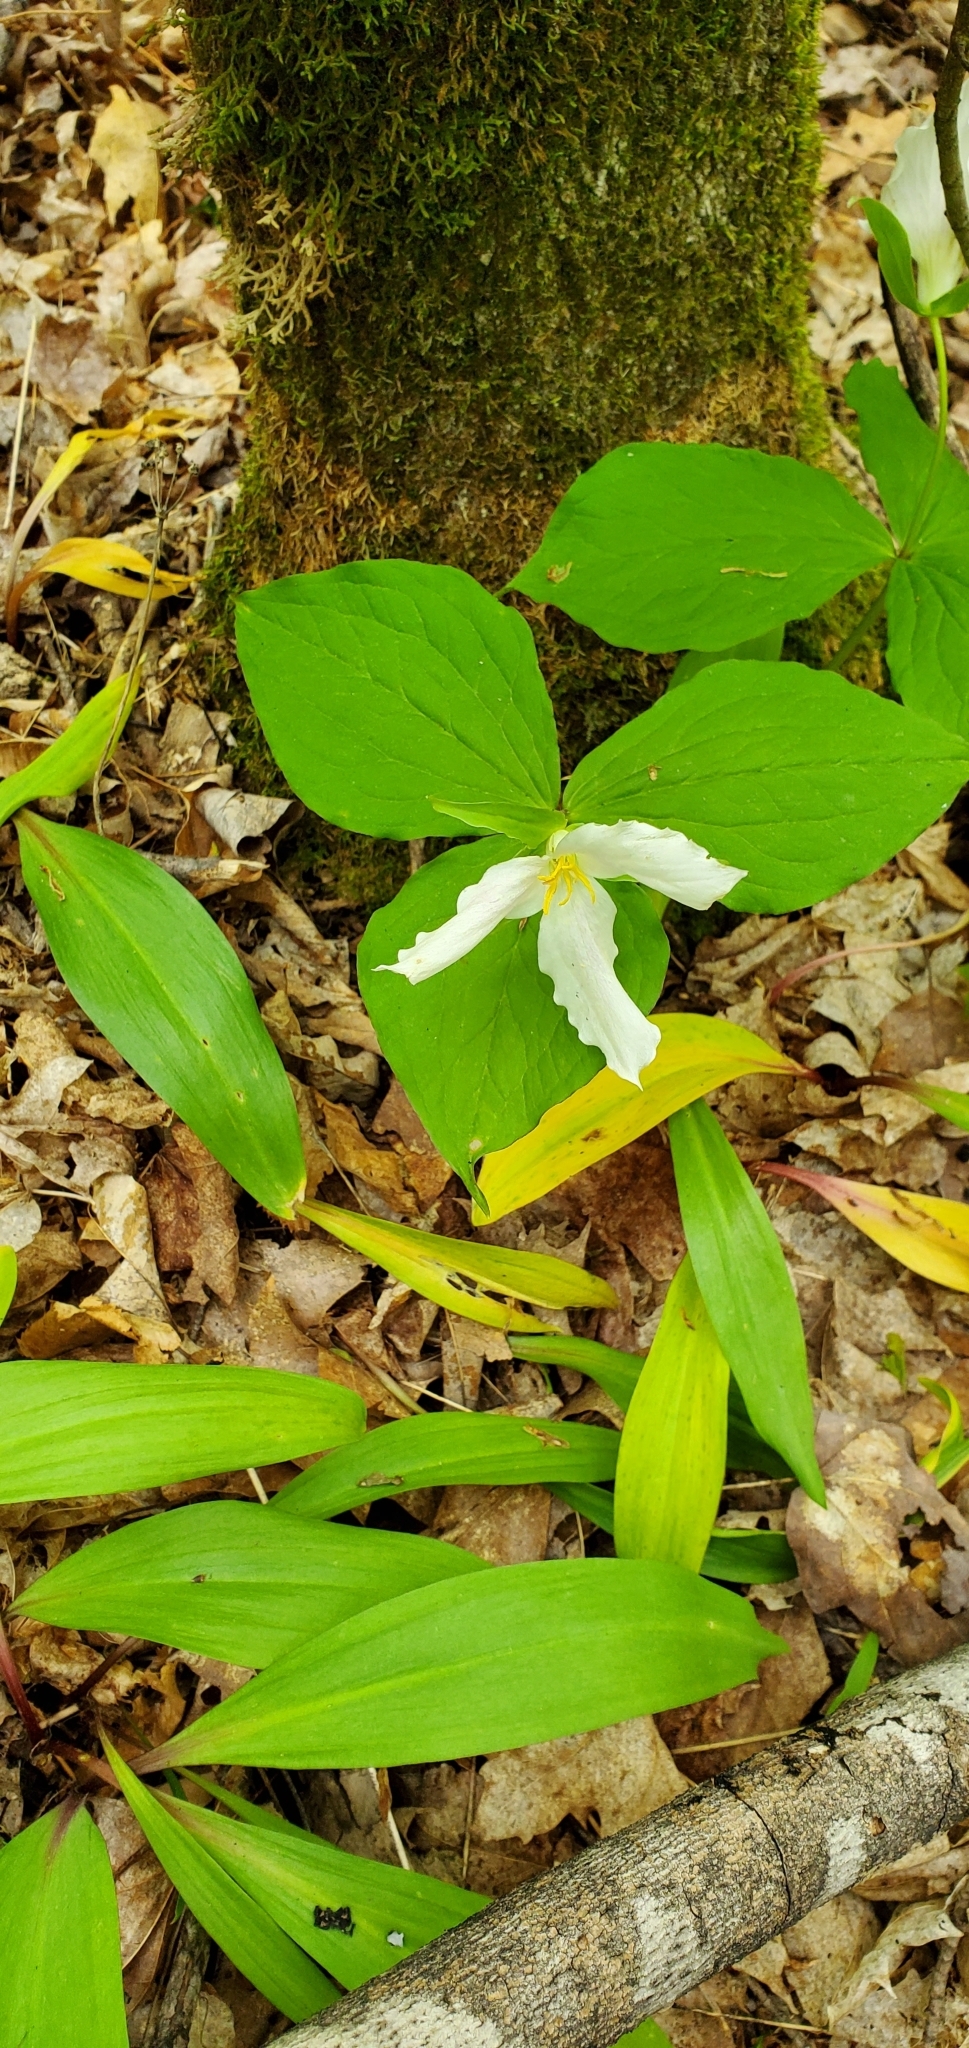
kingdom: Plantae
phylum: Tracheophyta
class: Liliopsida
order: Liliales
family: Melanthiaceae
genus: Trillium
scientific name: Trillium grandiflorum
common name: Great white trillium
